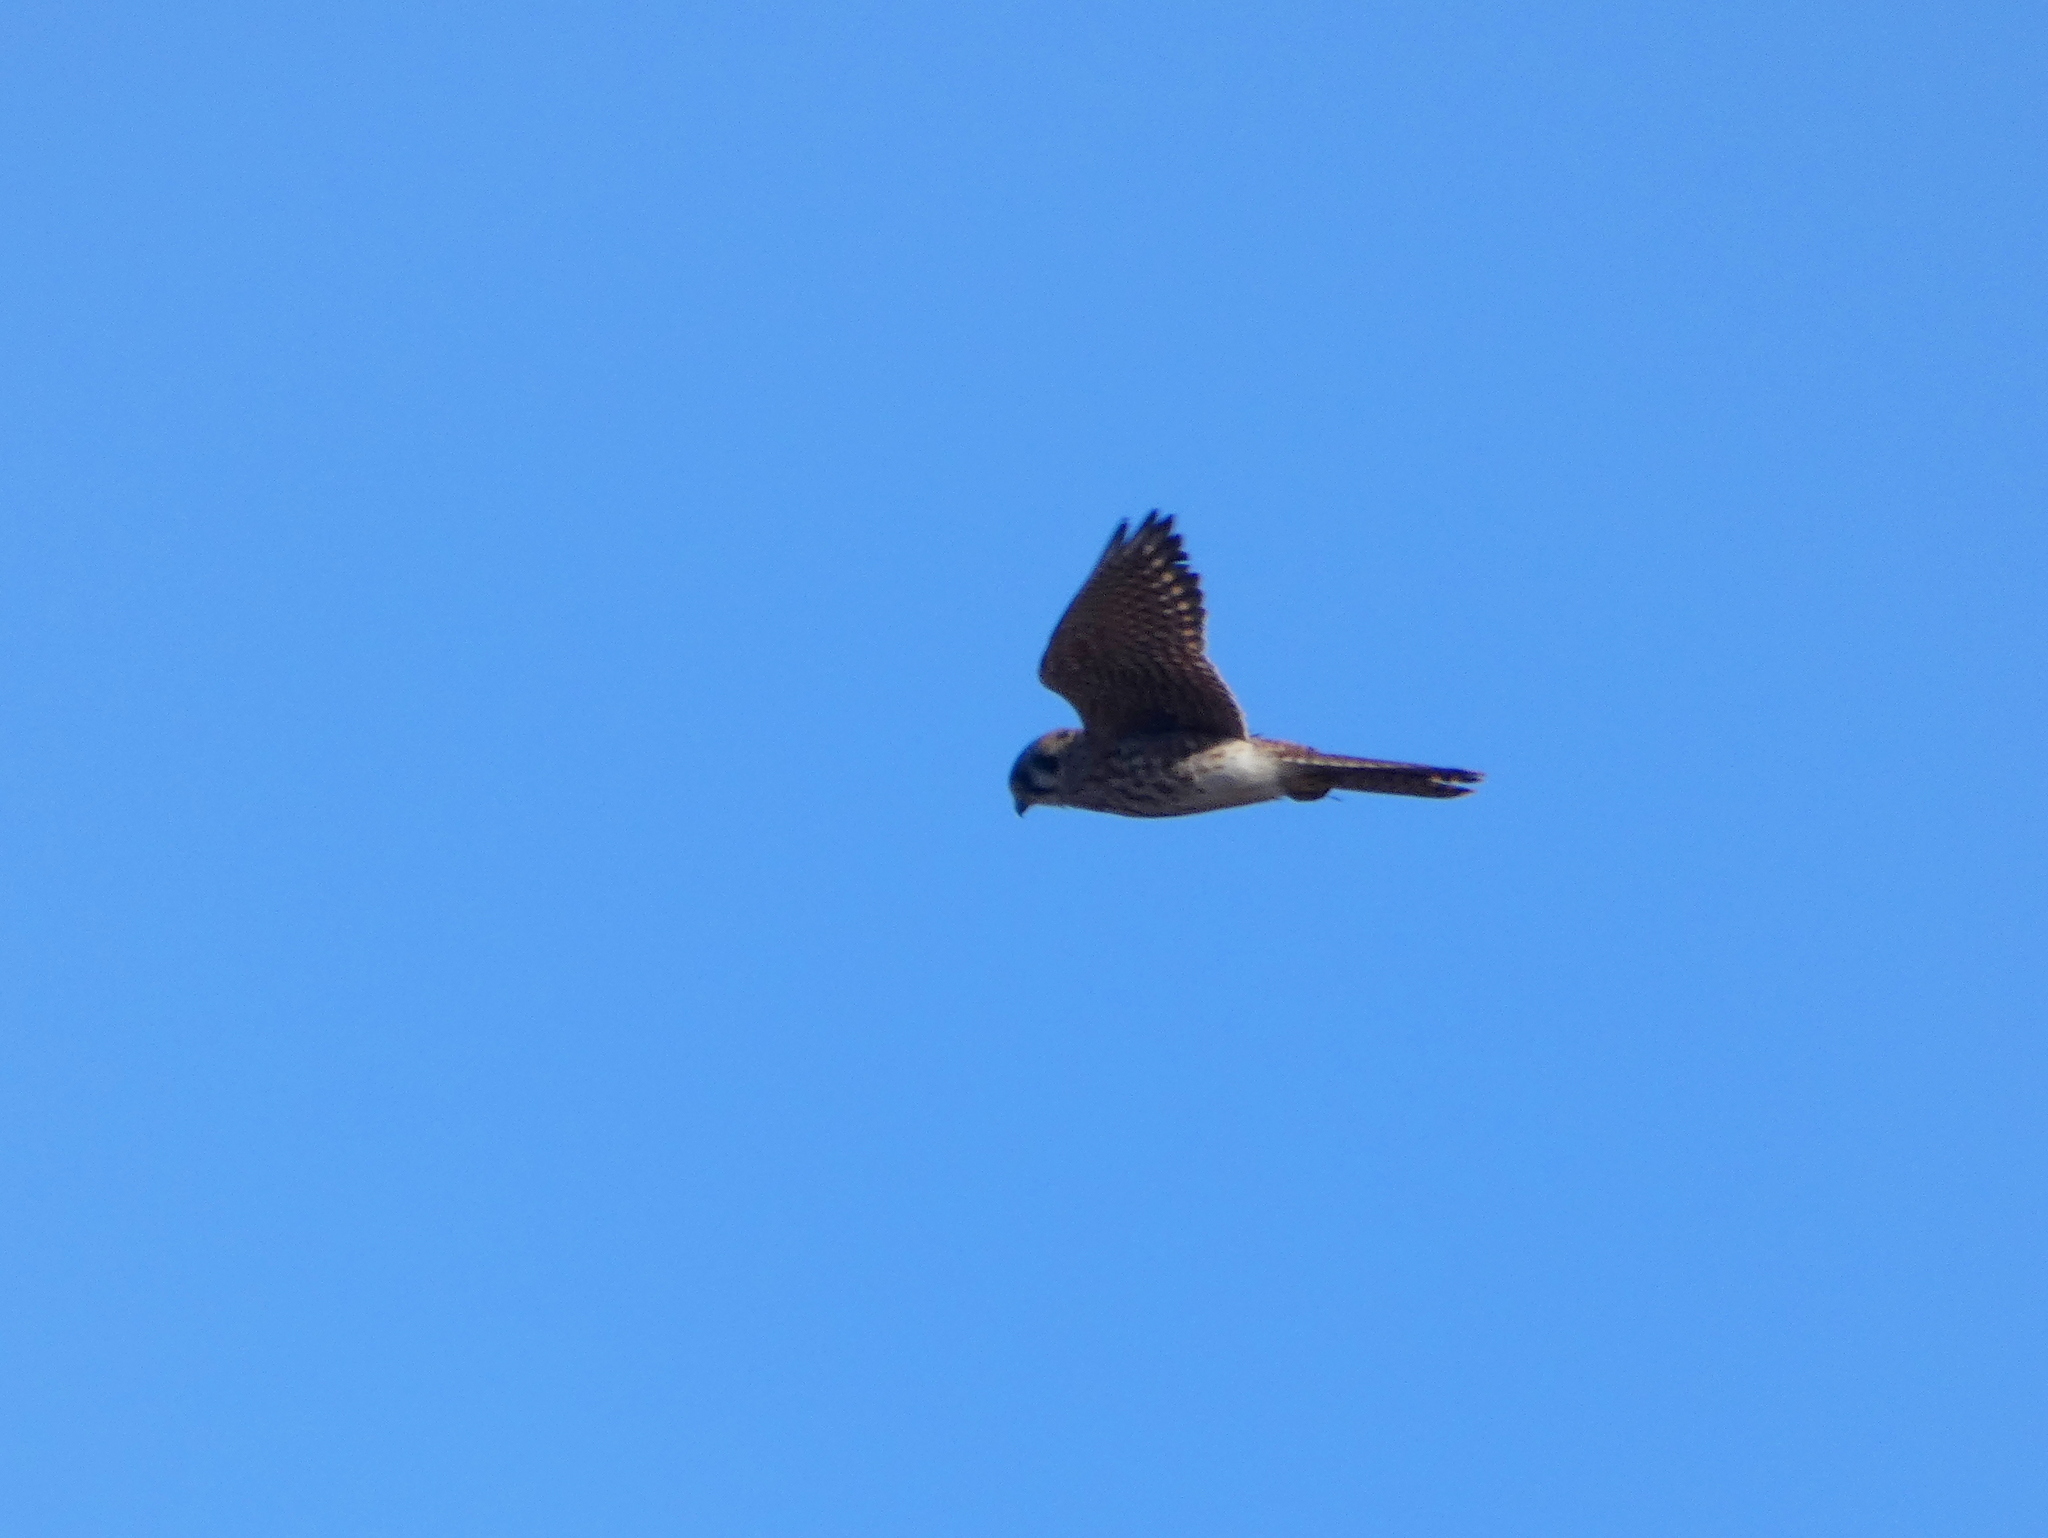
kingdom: Animalia
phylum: Chordata
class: Aves
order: Falconiformes
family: Falconidae
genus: Falco
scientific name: Falco sparverius
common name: American kestrel
